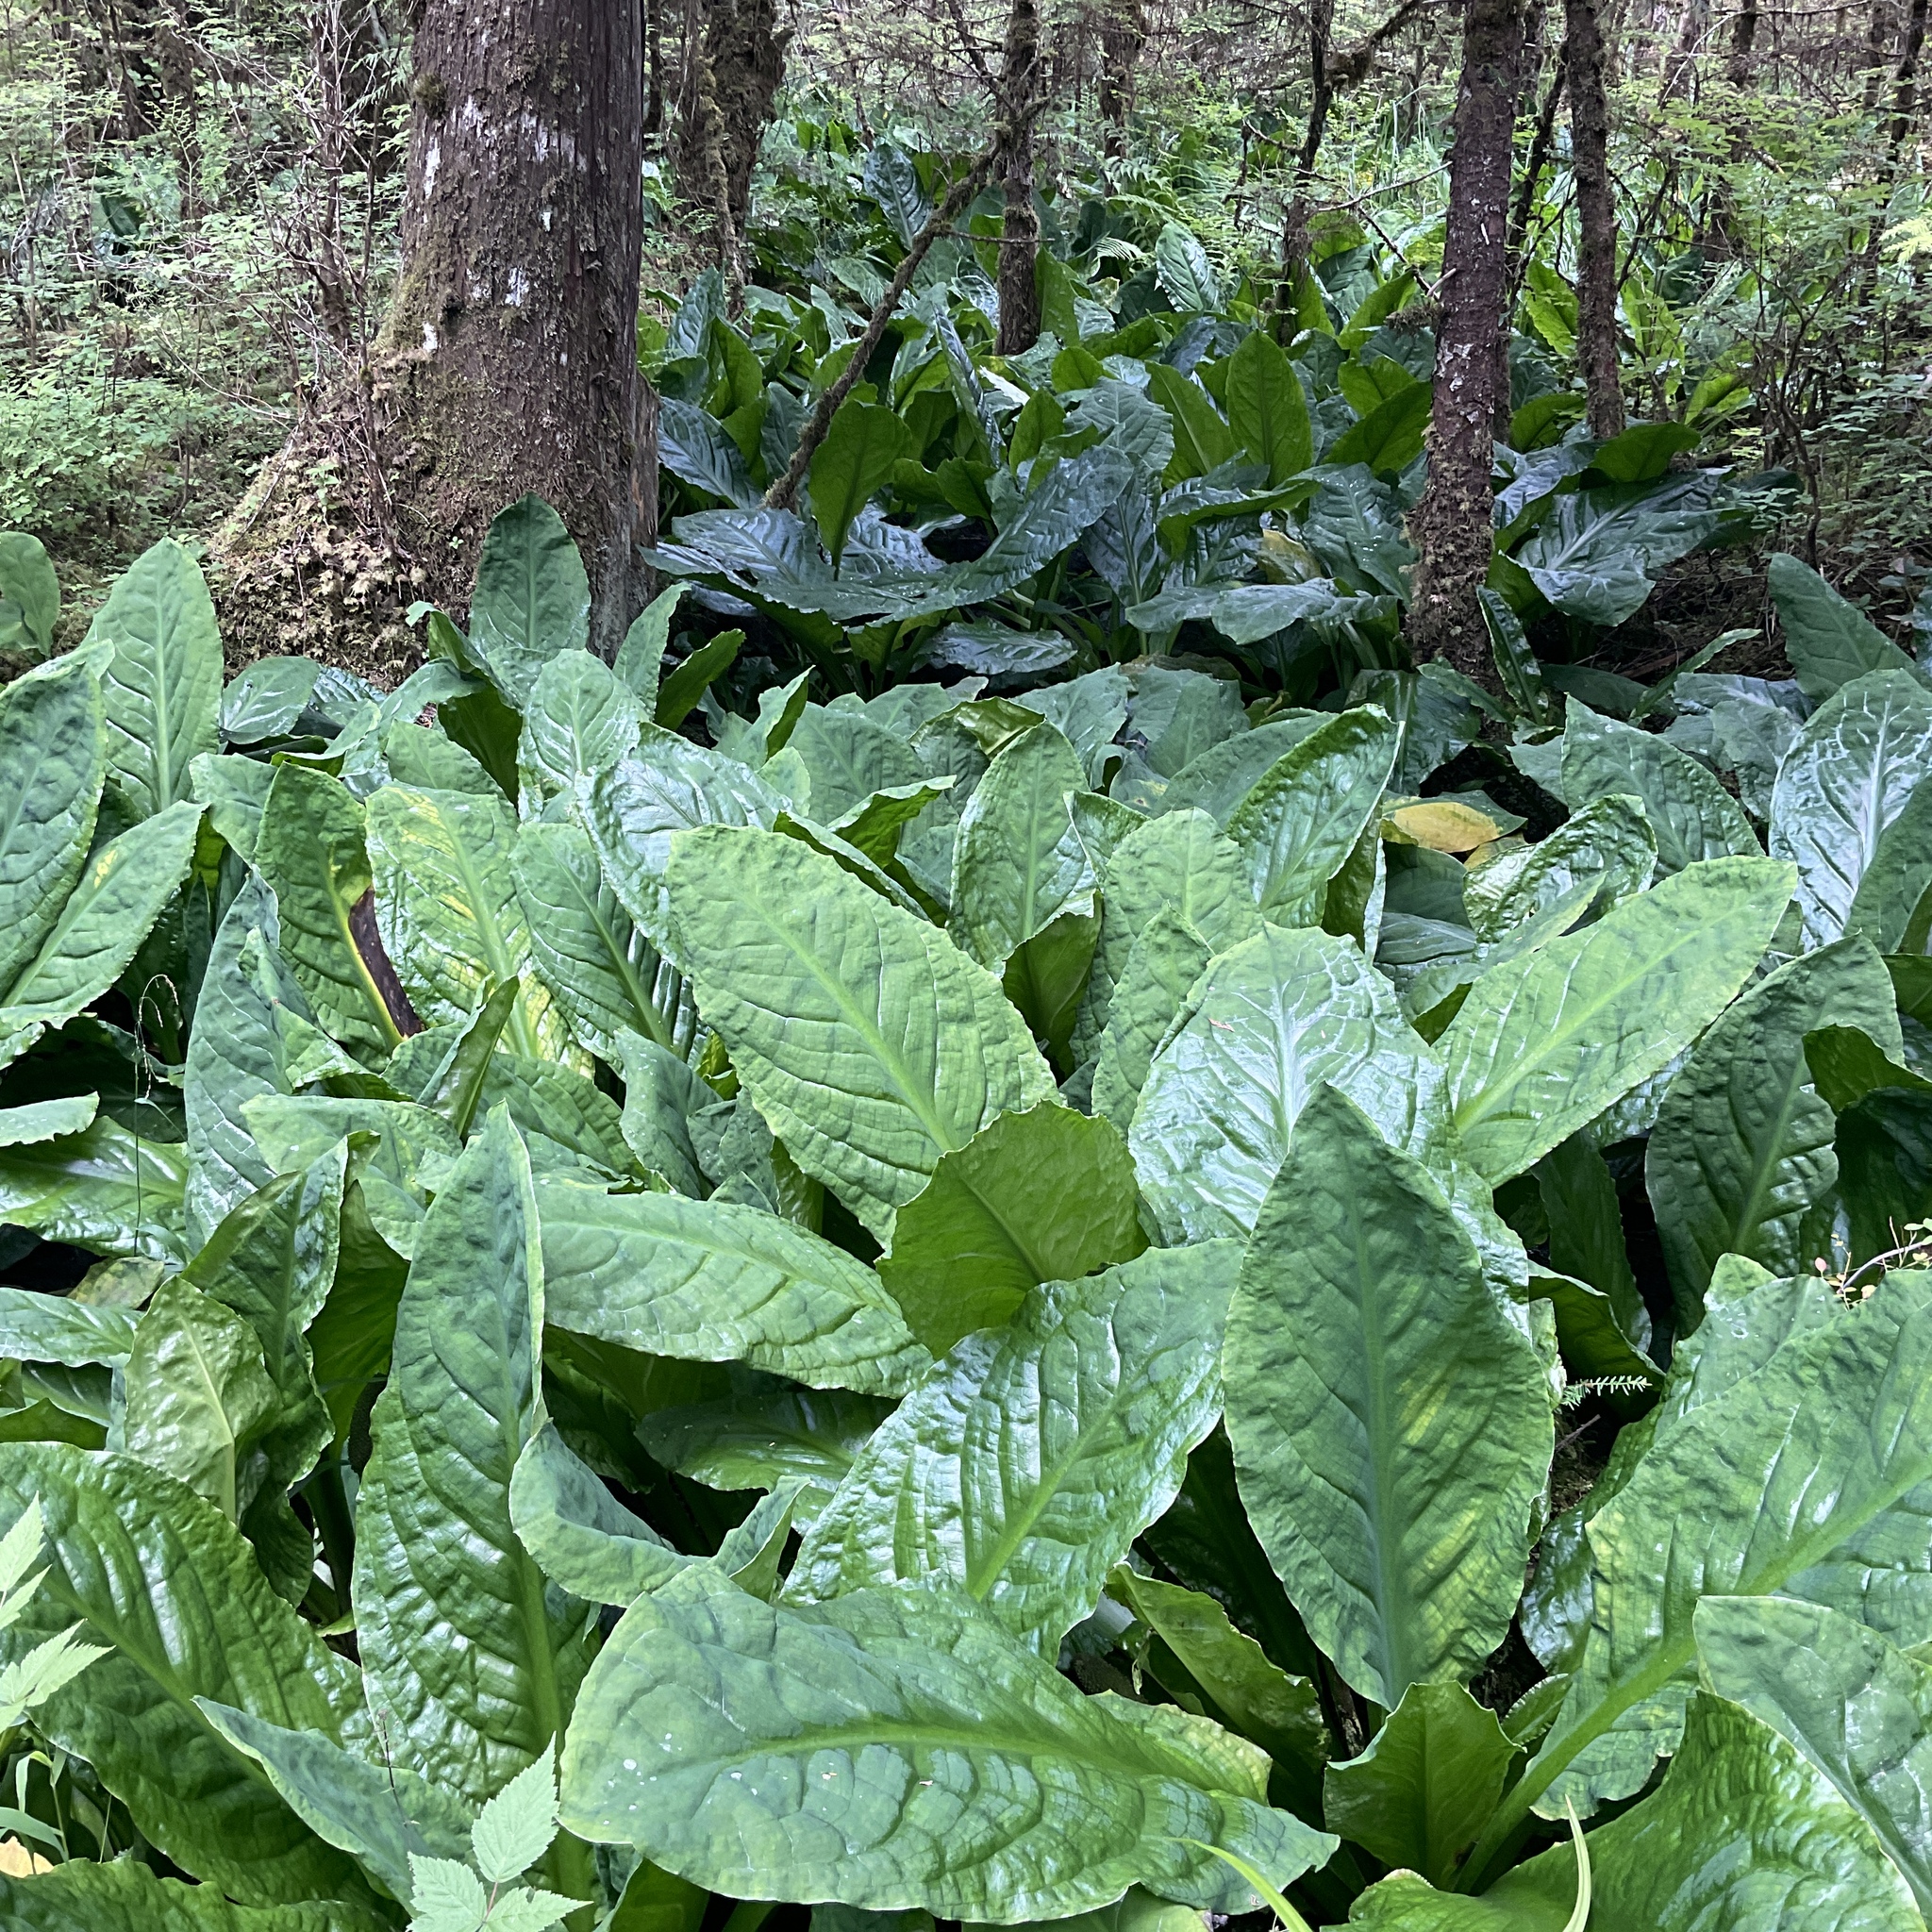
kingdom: Plantae
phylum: Tracheophyta
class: Liliopsida
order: Alismatales
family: Araceae
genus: Lysichiton
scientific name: Lysichiton americanus
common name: American skunk cabbage
